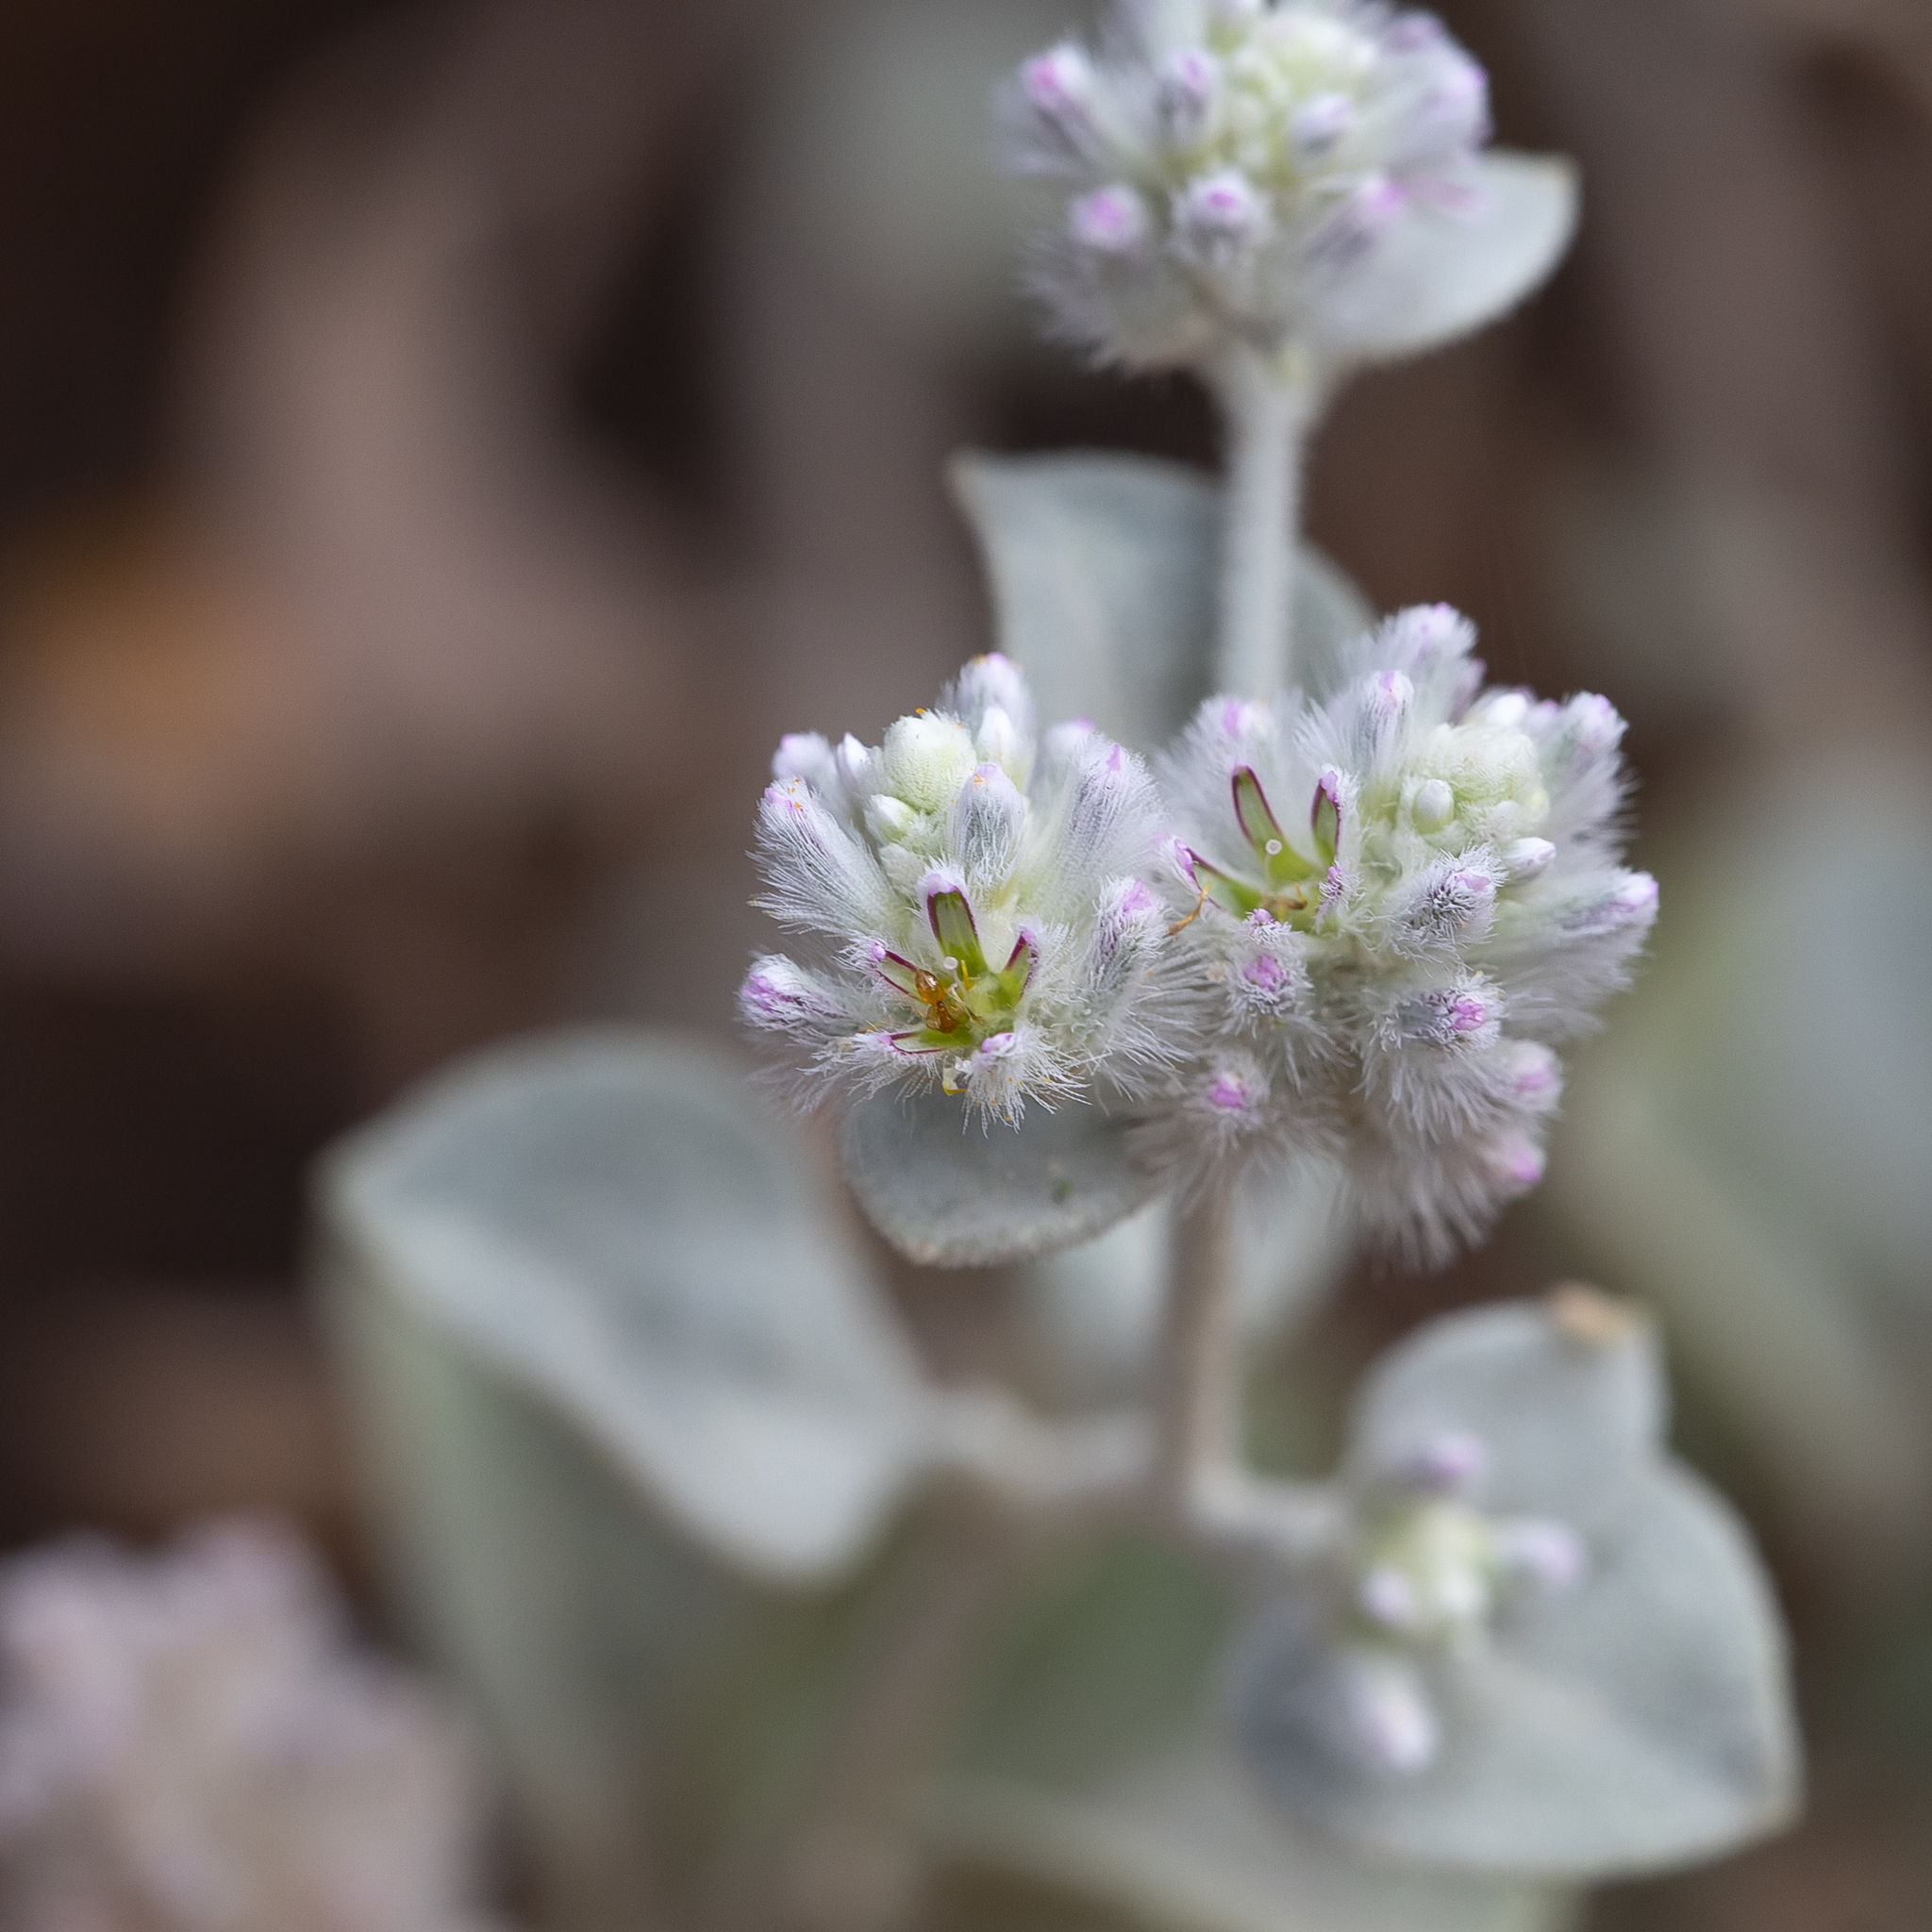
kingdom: Plantae
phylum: Tracheophyta
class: Magnoliopsida
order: Caryophyllales
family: Amaranthaceae
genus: Ptilotus
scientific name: Ptilotus obovatus
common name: Cottonbush
